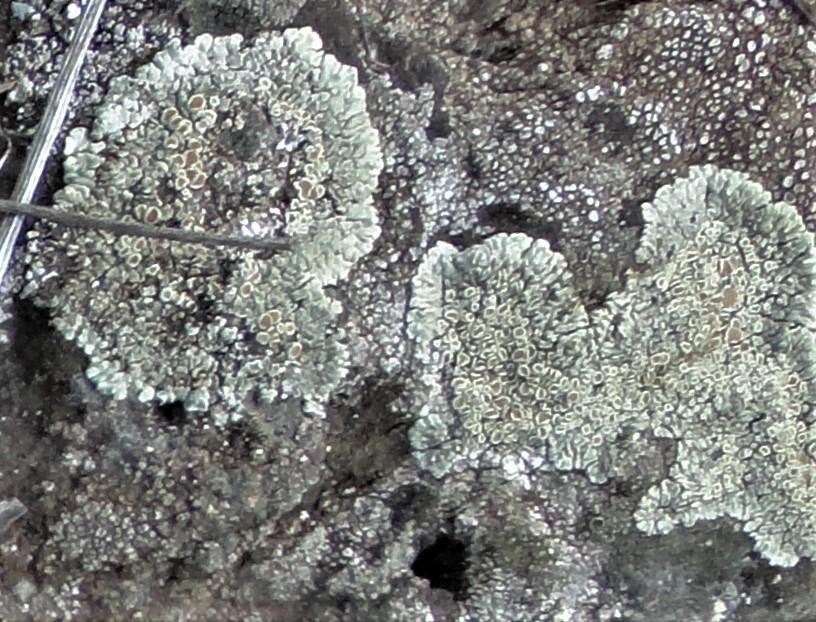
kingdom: Fungi
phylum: Ascomycota
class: Lecanoromycetes
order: Lecanorales
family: Lecanoraceae
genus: Protoparmeliopsis
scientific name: Protoparmeliopsis muralis
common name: Stonewall rim lichen
